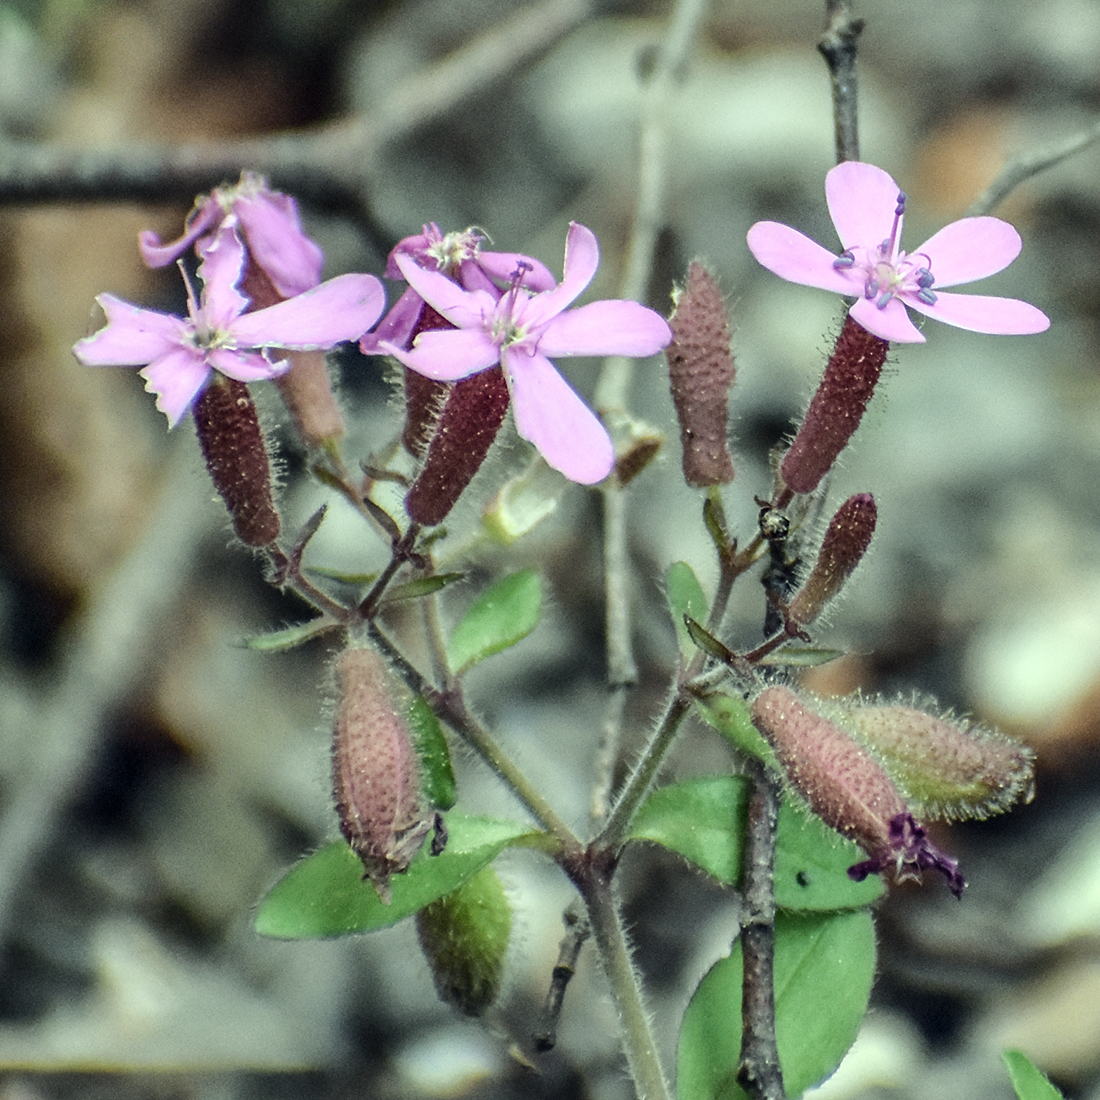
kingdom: Plantae
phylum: Tracheophyta
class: Magnoliopsida
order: Caryophyllales
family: Caryophyllaceae
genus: Saponaria
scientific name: Saponaria ocymoides
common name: Rock soapwort
